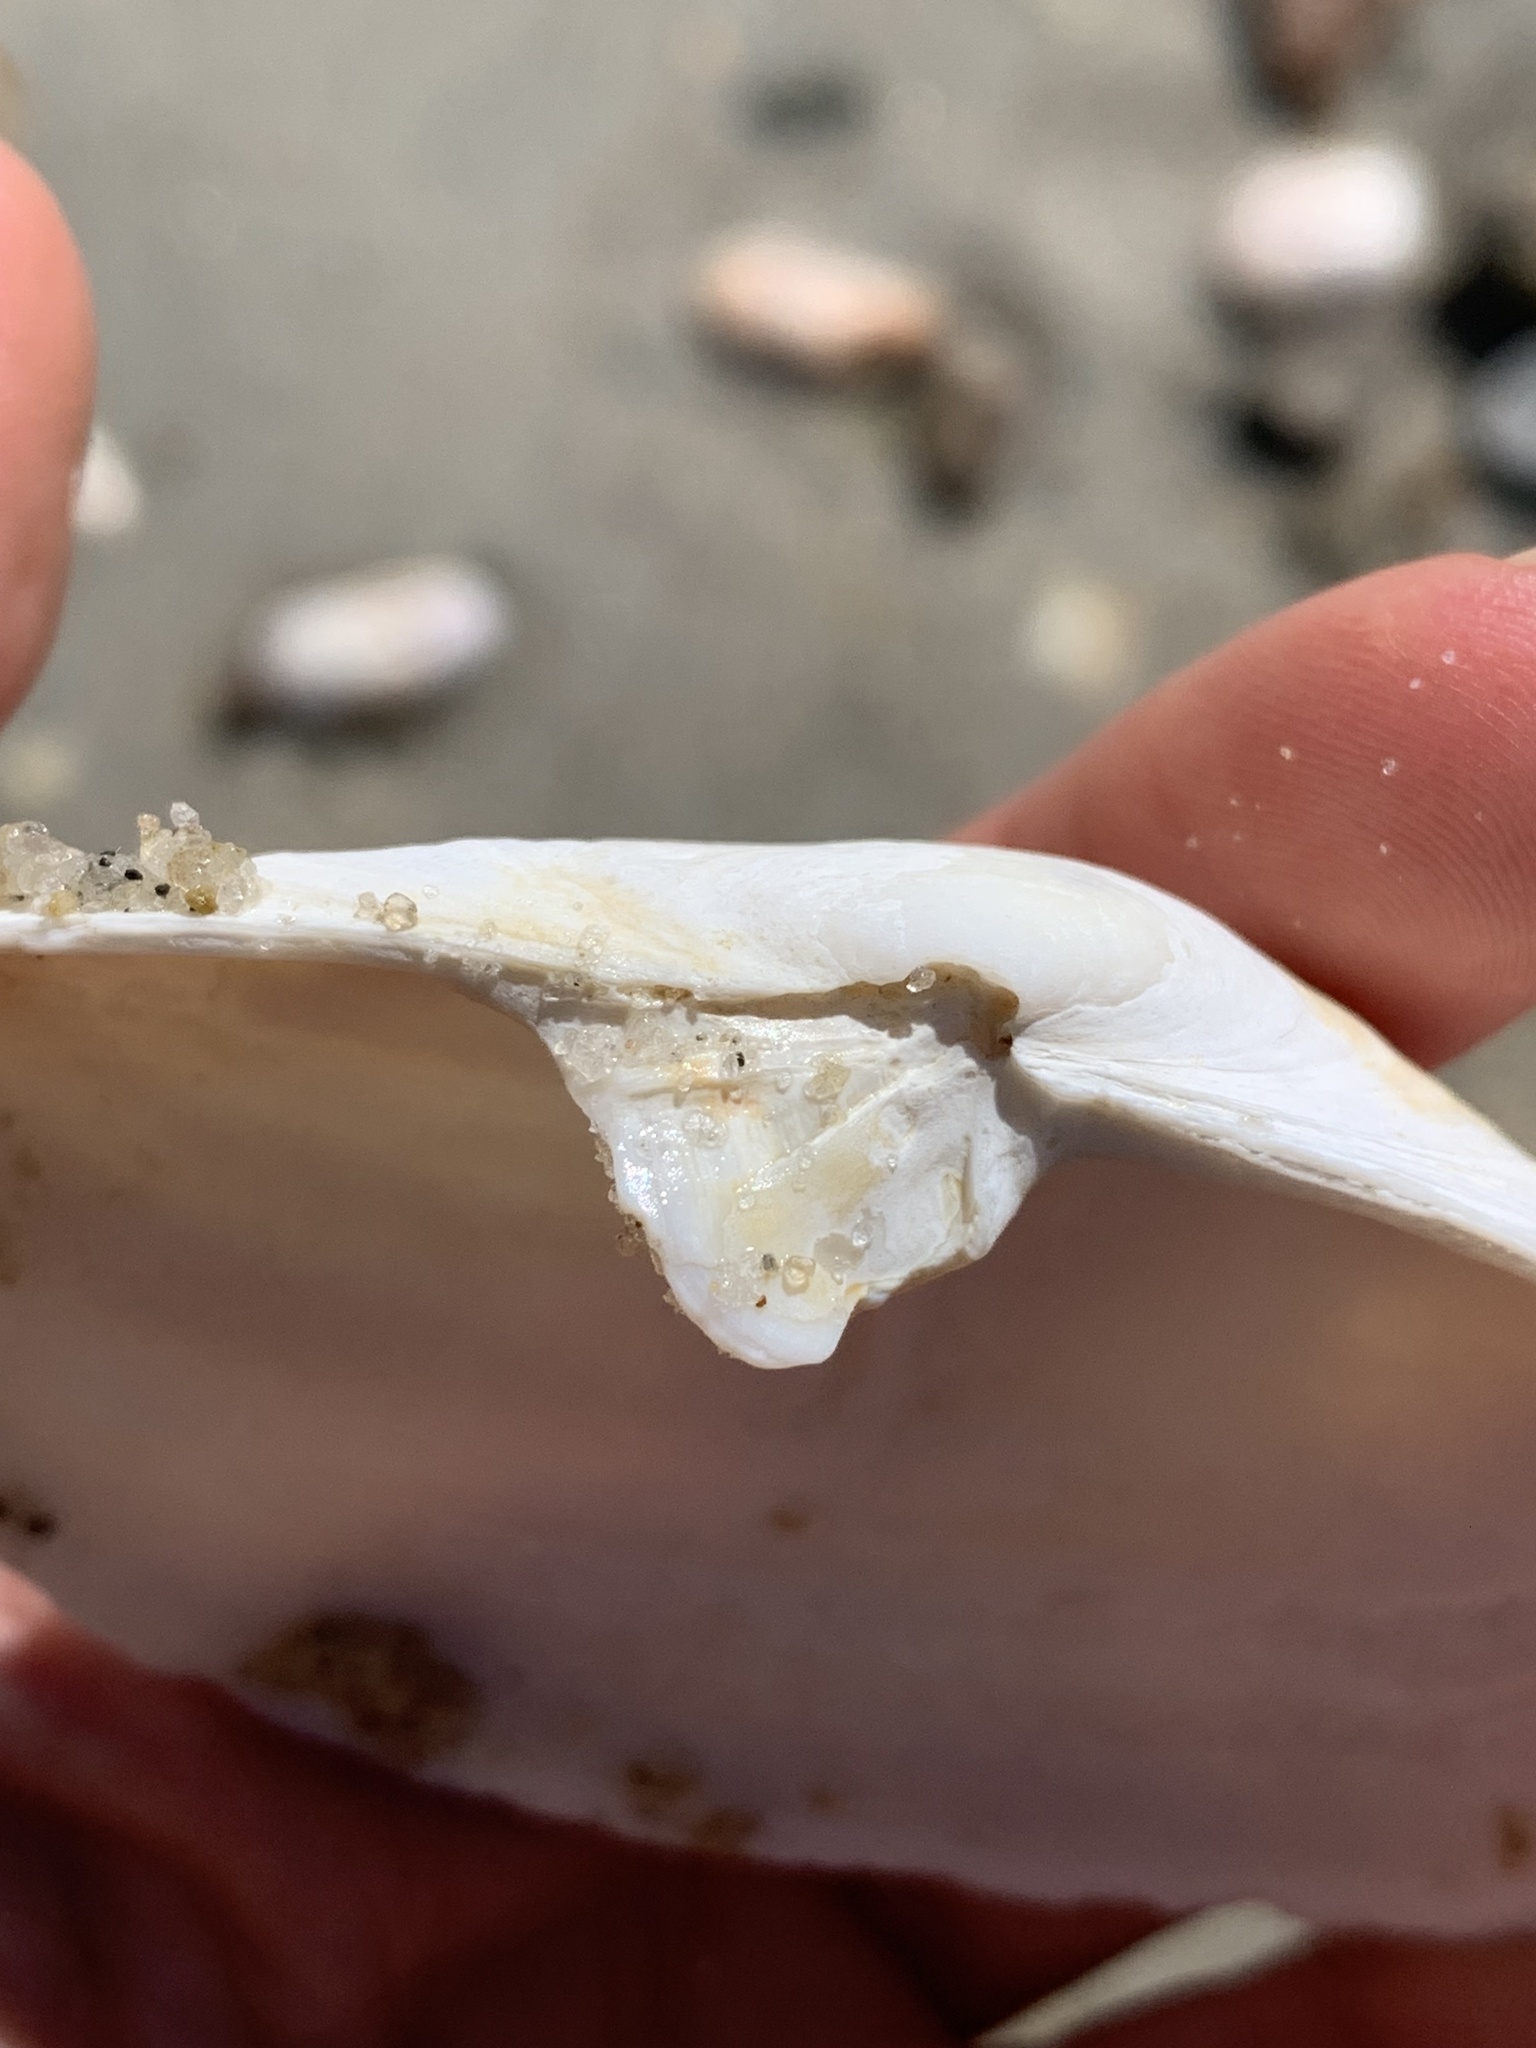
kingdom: Animalia
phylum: Mollusca
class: Bivalvia
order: Myida
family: Myidae
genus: Mya
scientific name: Mya arenaria
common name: Soft-shelled clam
